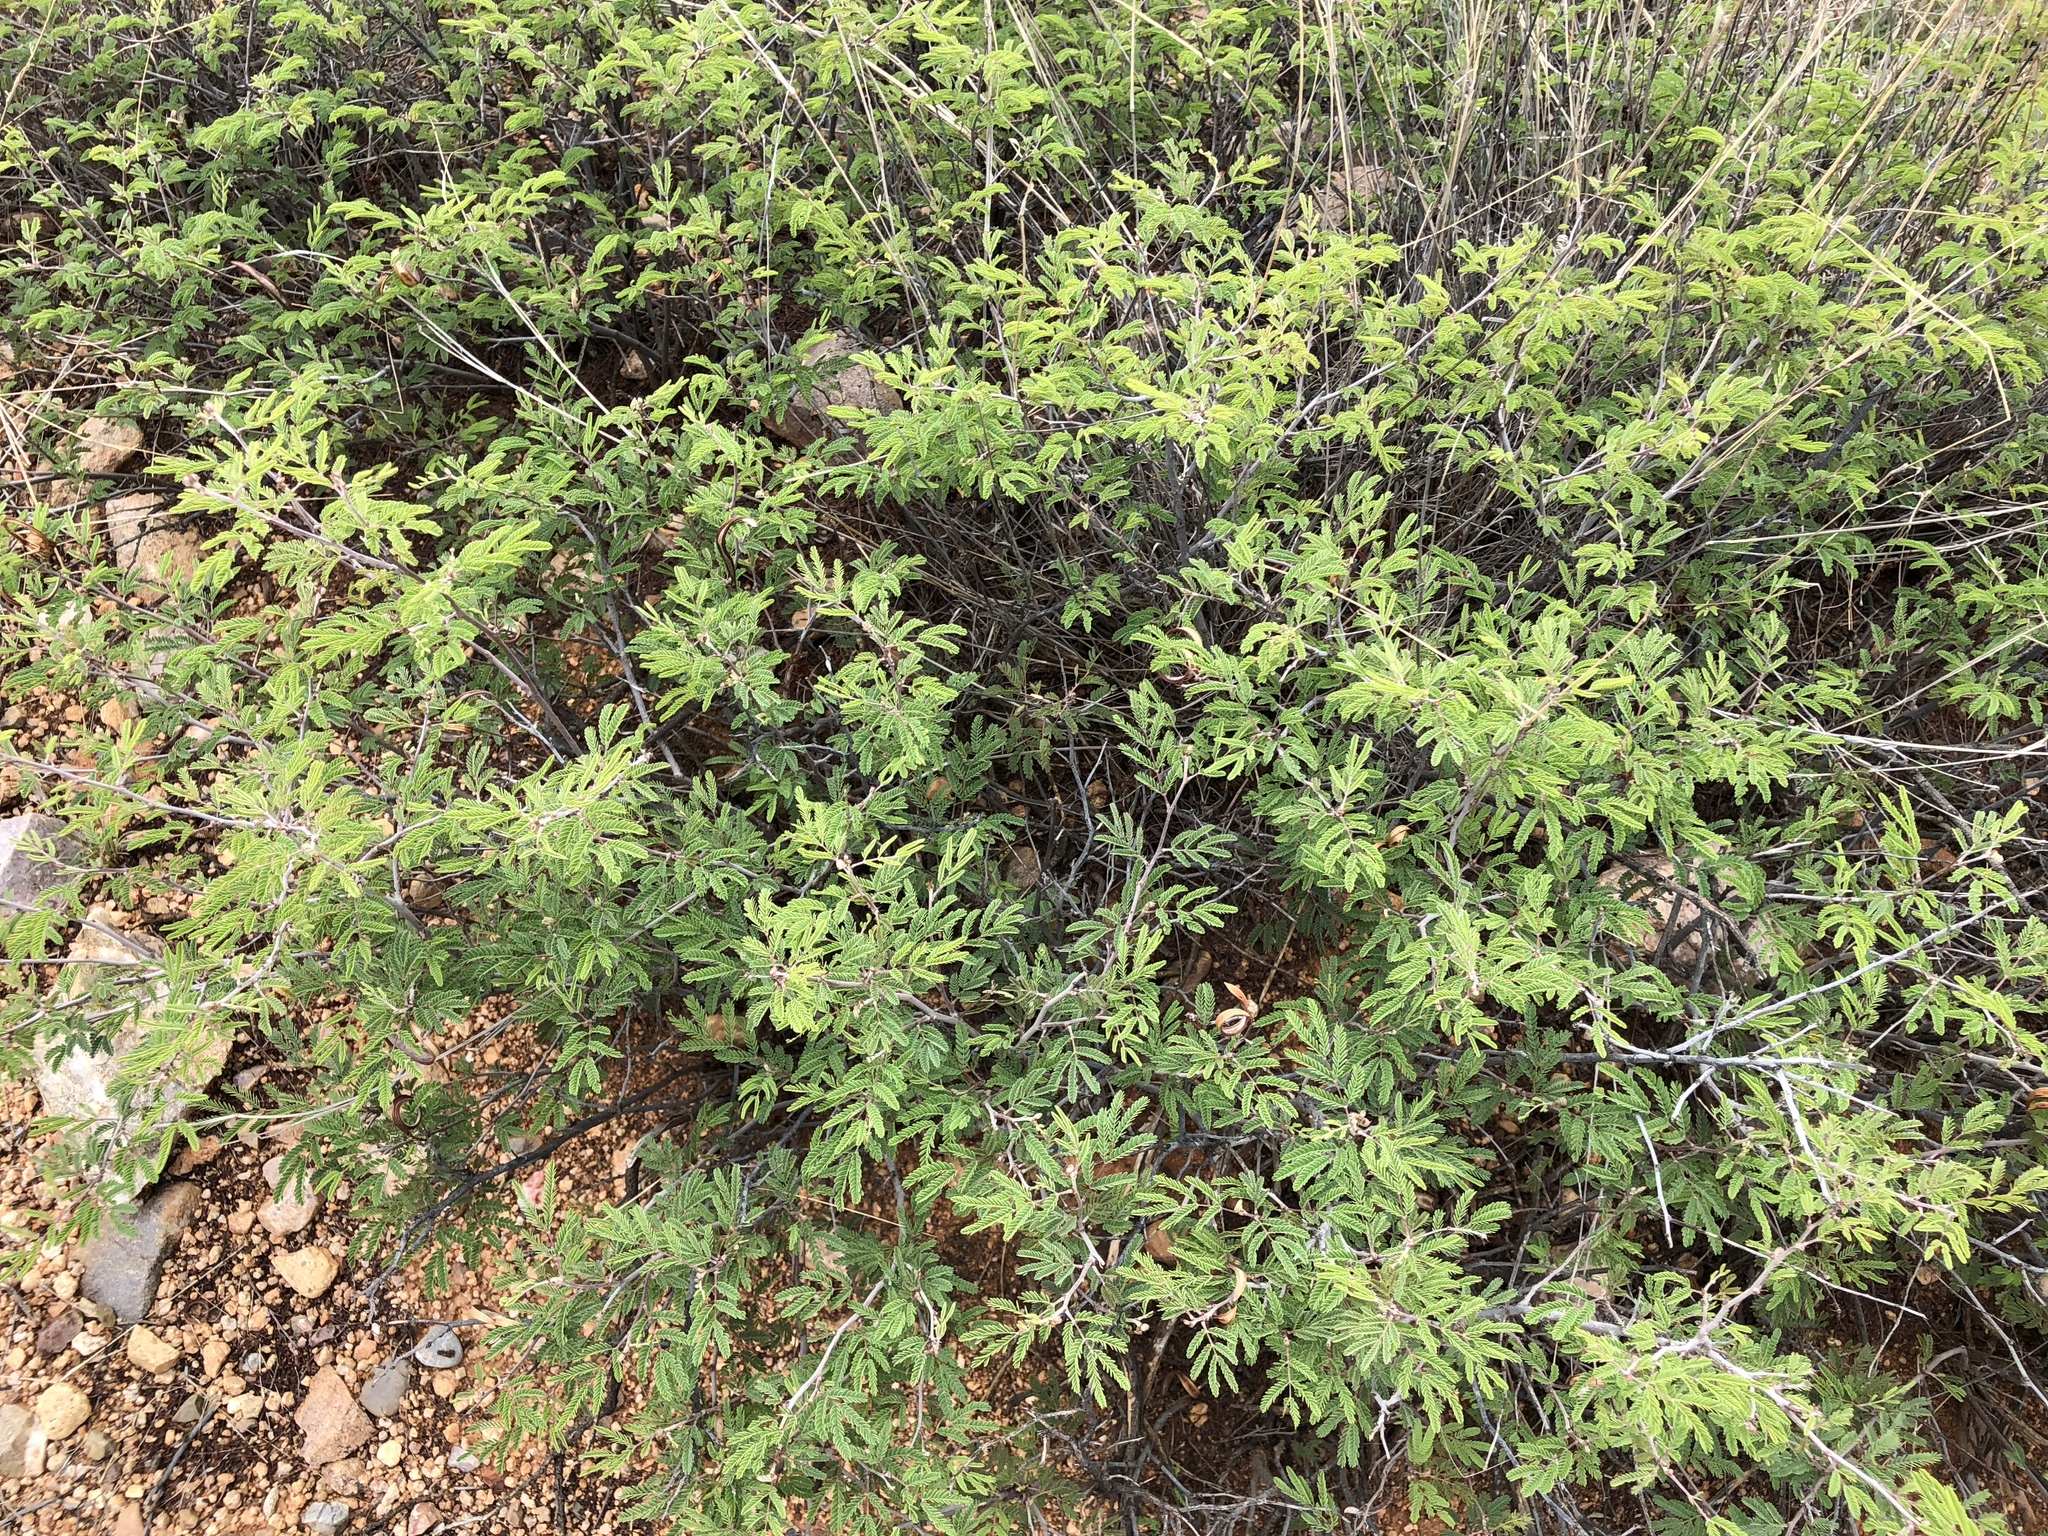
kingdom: Plantae
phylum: Tracheophyta
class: Magnoliopsida
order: Fabales
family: Fabaceae
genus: Calliandra
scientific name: Calliandra eriophylla
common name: Fairy-duster
